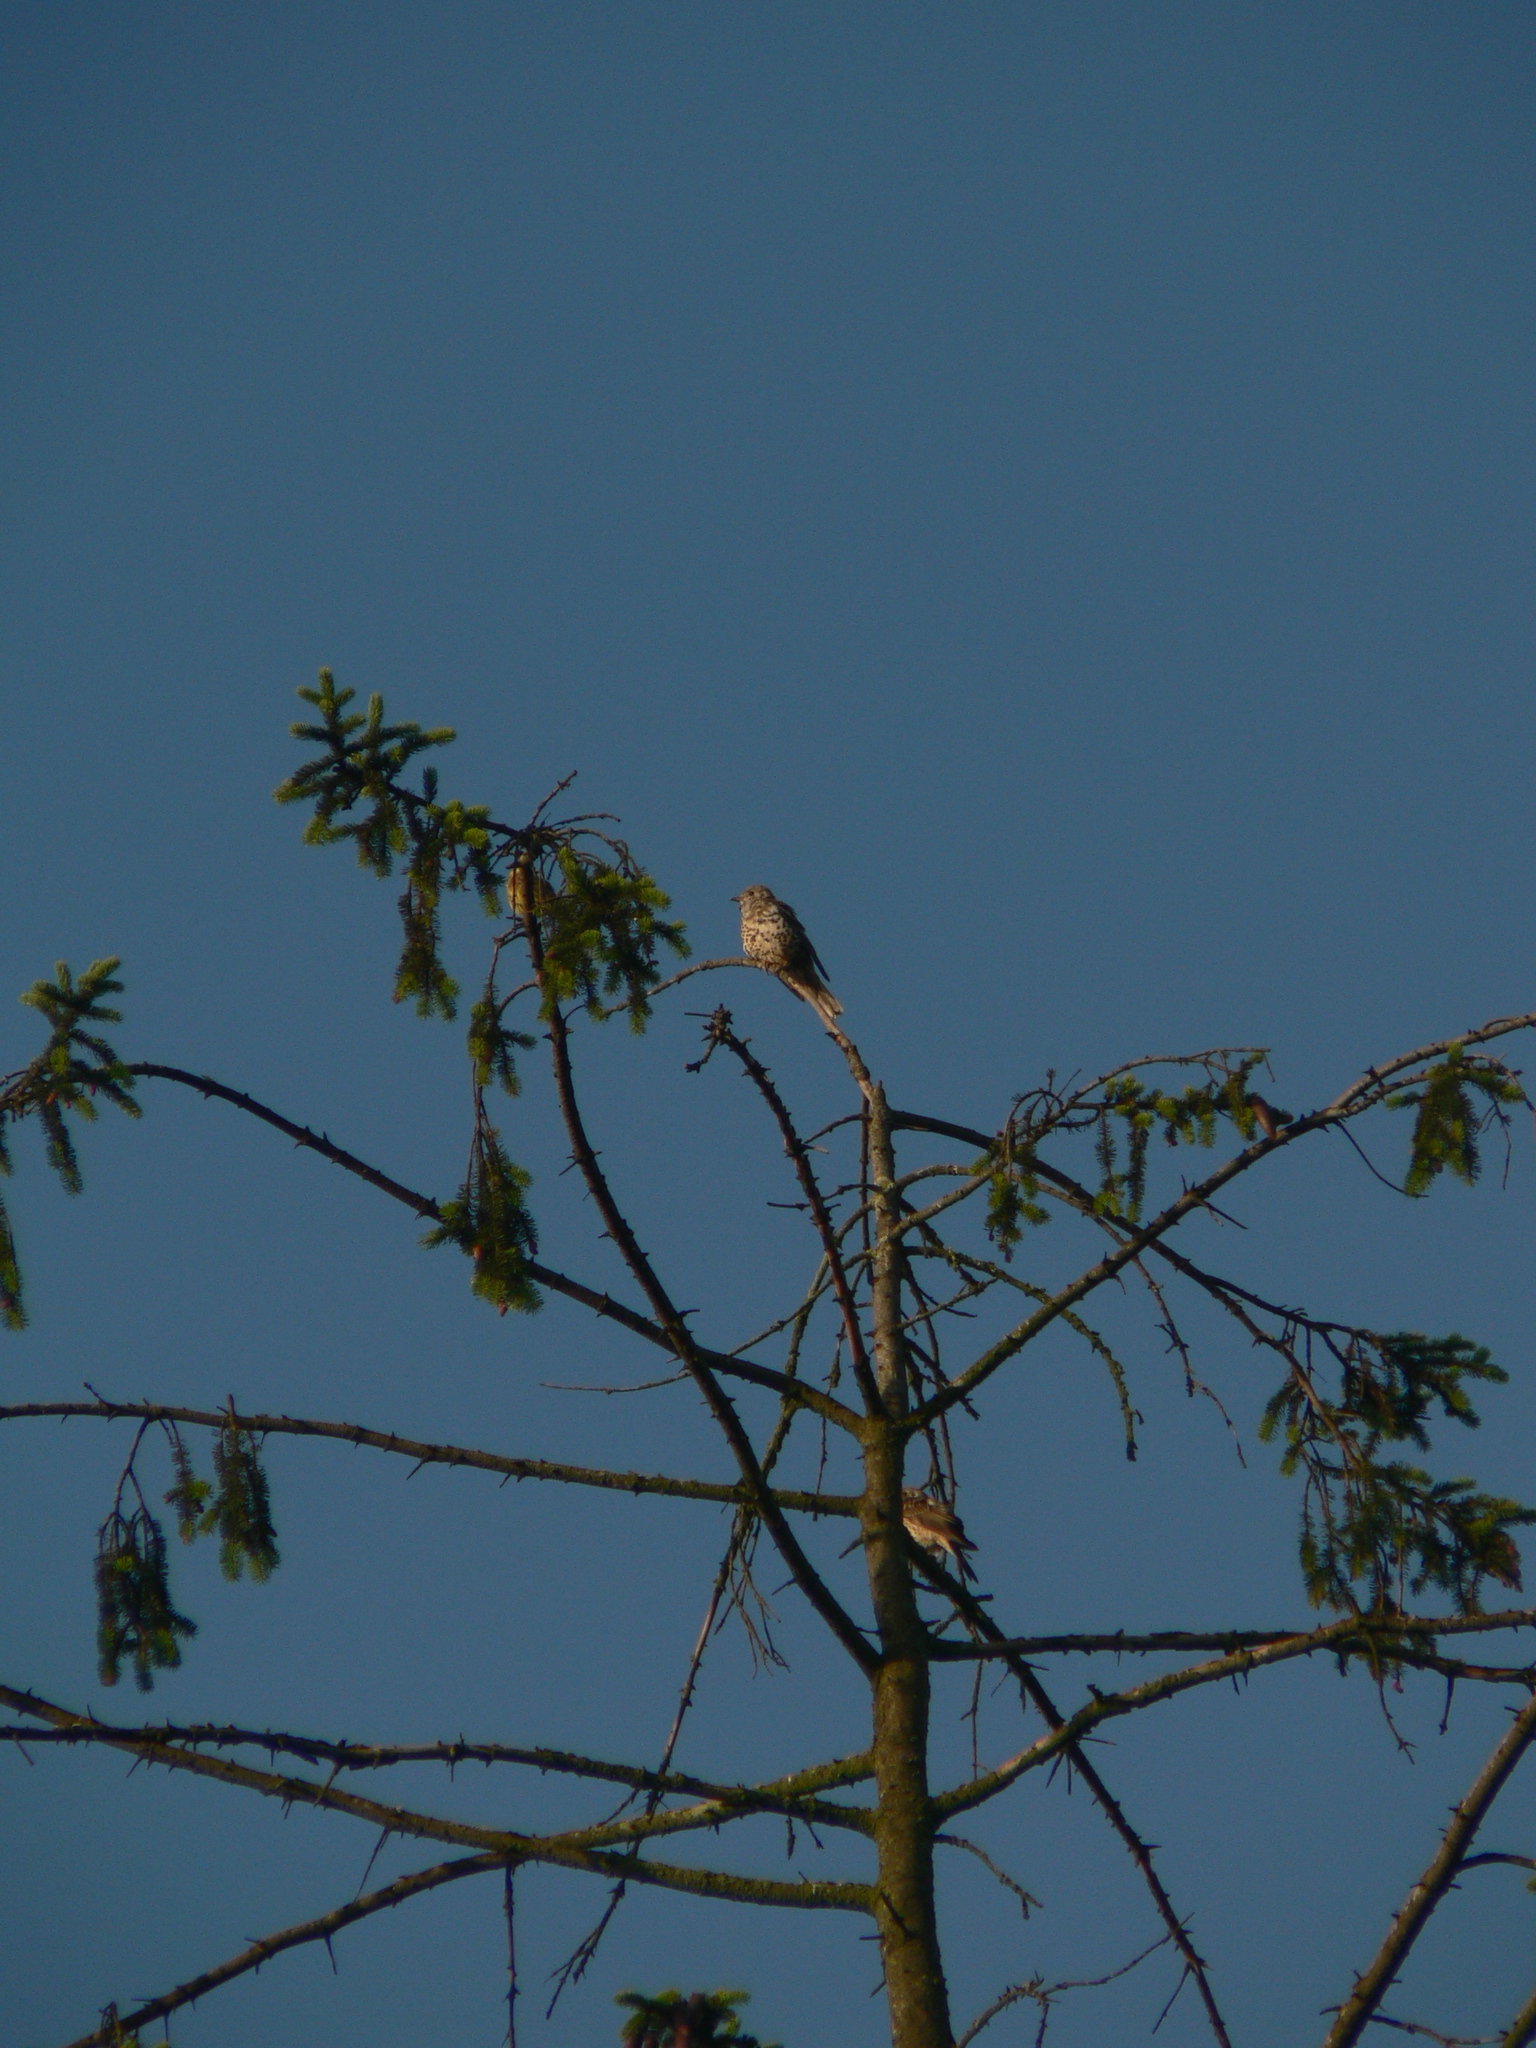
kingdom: Animalia
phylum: Chordata
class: Aves
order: Passeriformes
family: Turdidae
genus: Turdus
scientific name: Turdus viscivorus
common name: Mistle thrush
